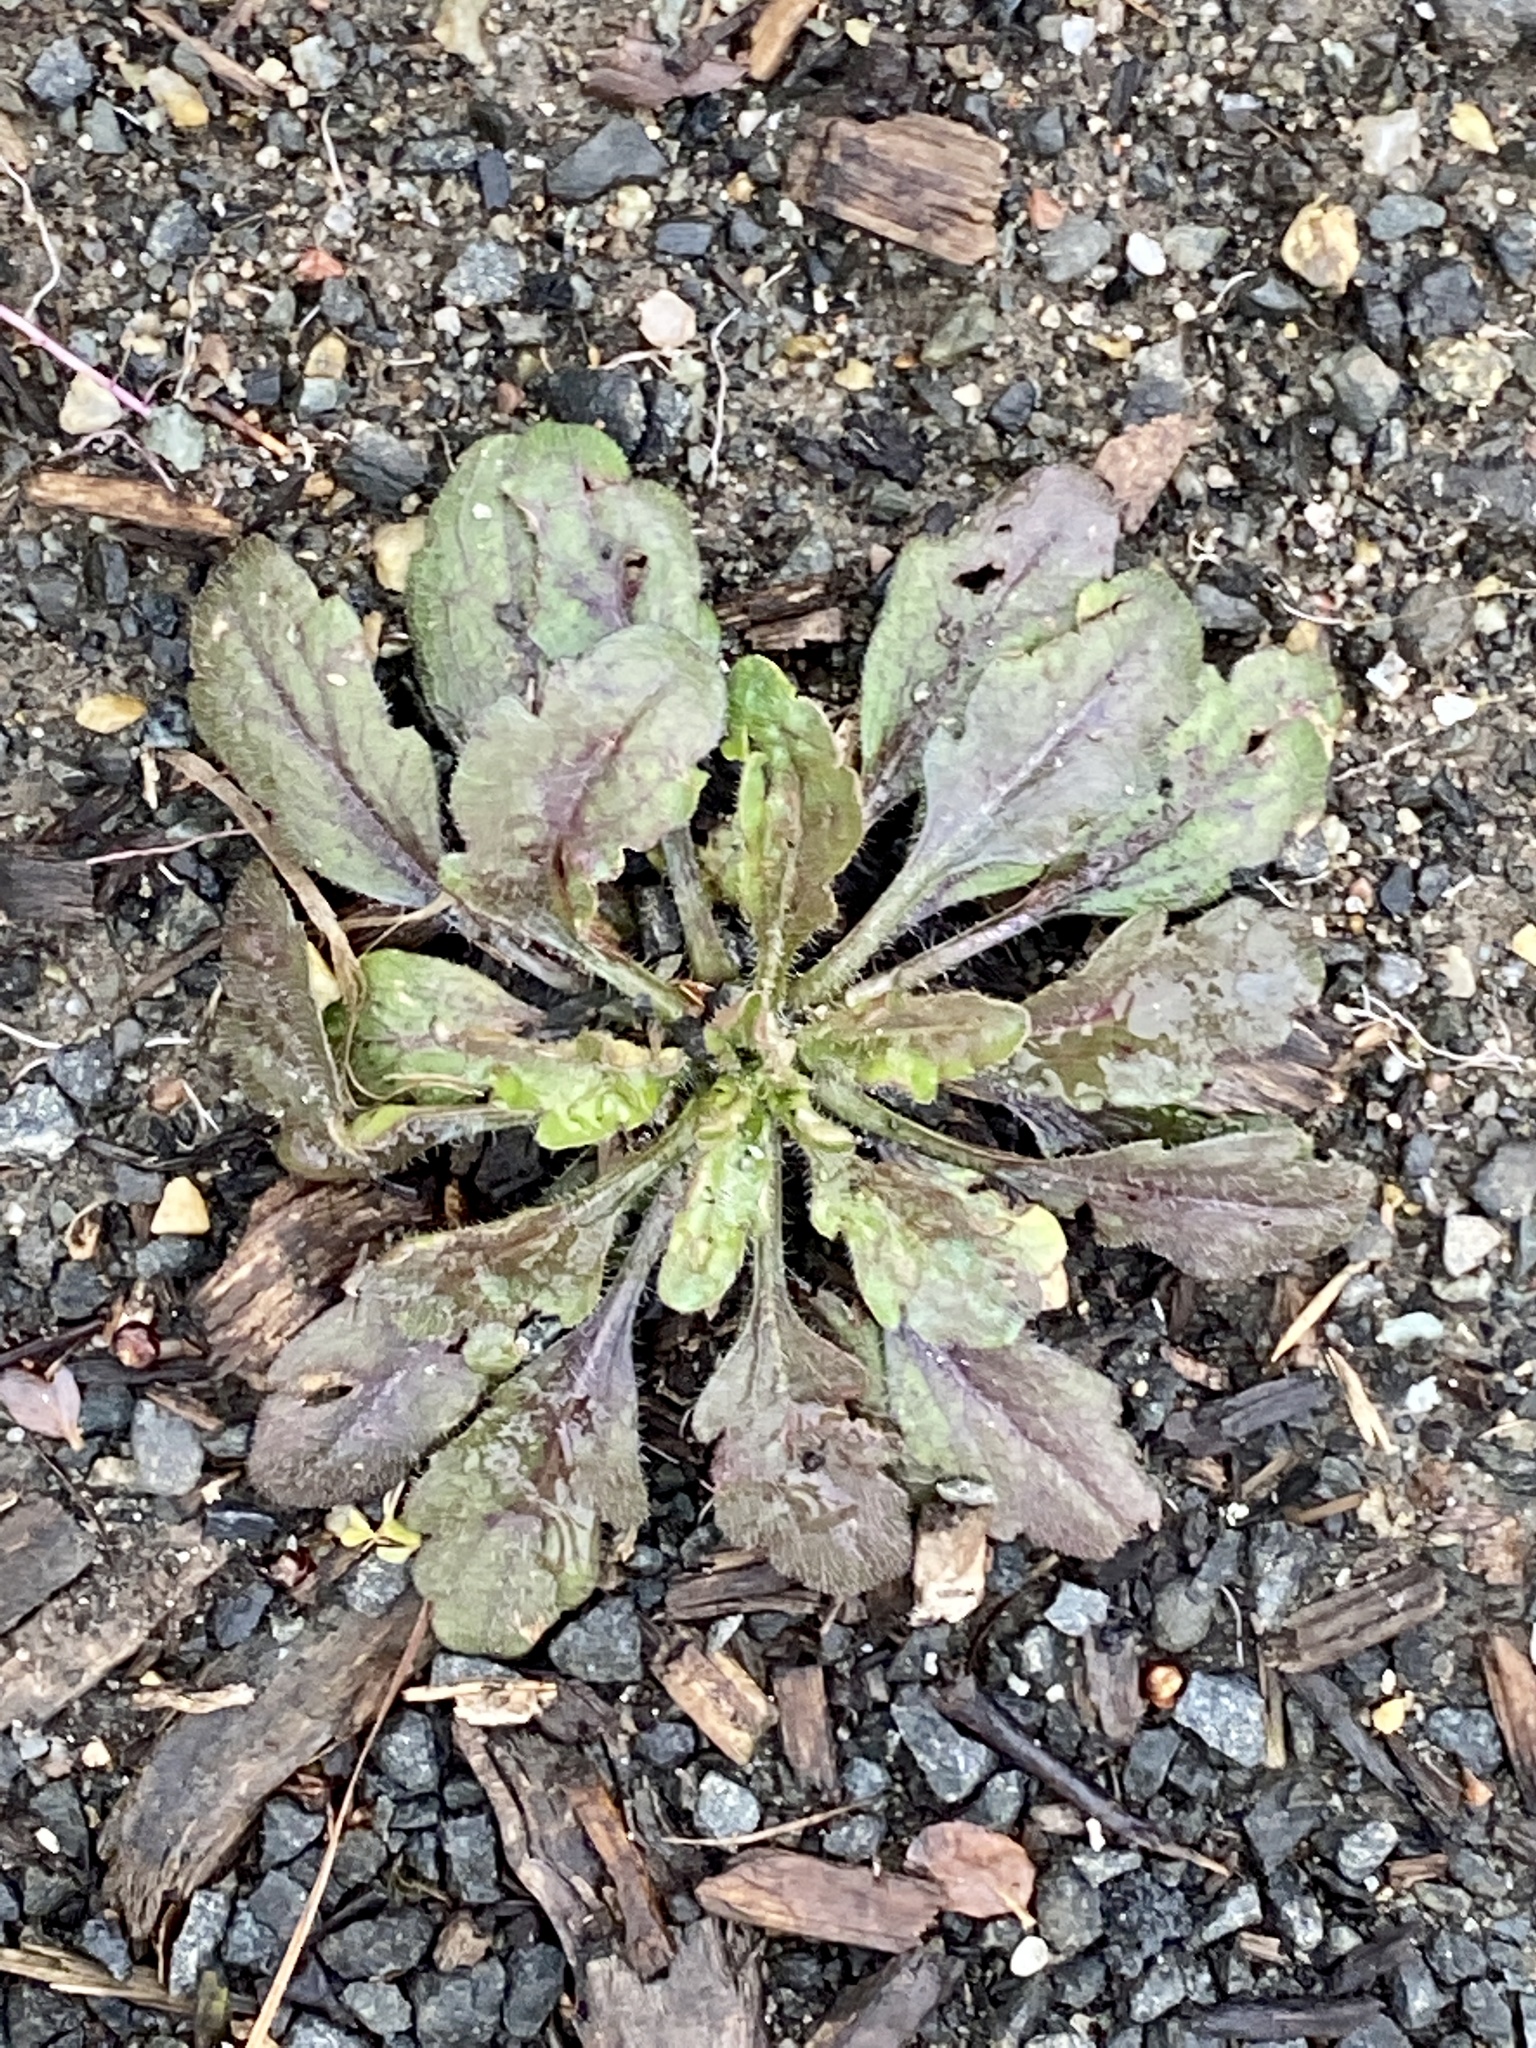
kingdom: Plantae
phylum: Tracheophyta
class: Magnoliopsida
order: Asterales
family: Asteraceae
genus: Erigeron
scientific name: Erigeron canadensis
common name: Canadian fleabane
